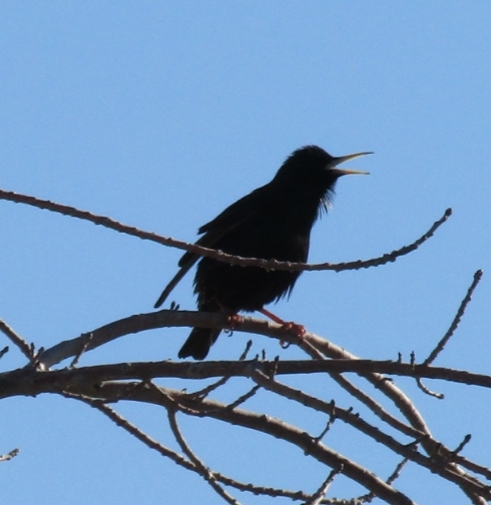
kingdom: Animalia
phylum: Chordata
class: Aves
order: Passeriformes
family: Sturnidae
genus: Sturnus
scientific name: Sturnus vulgaris
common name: Common starling
